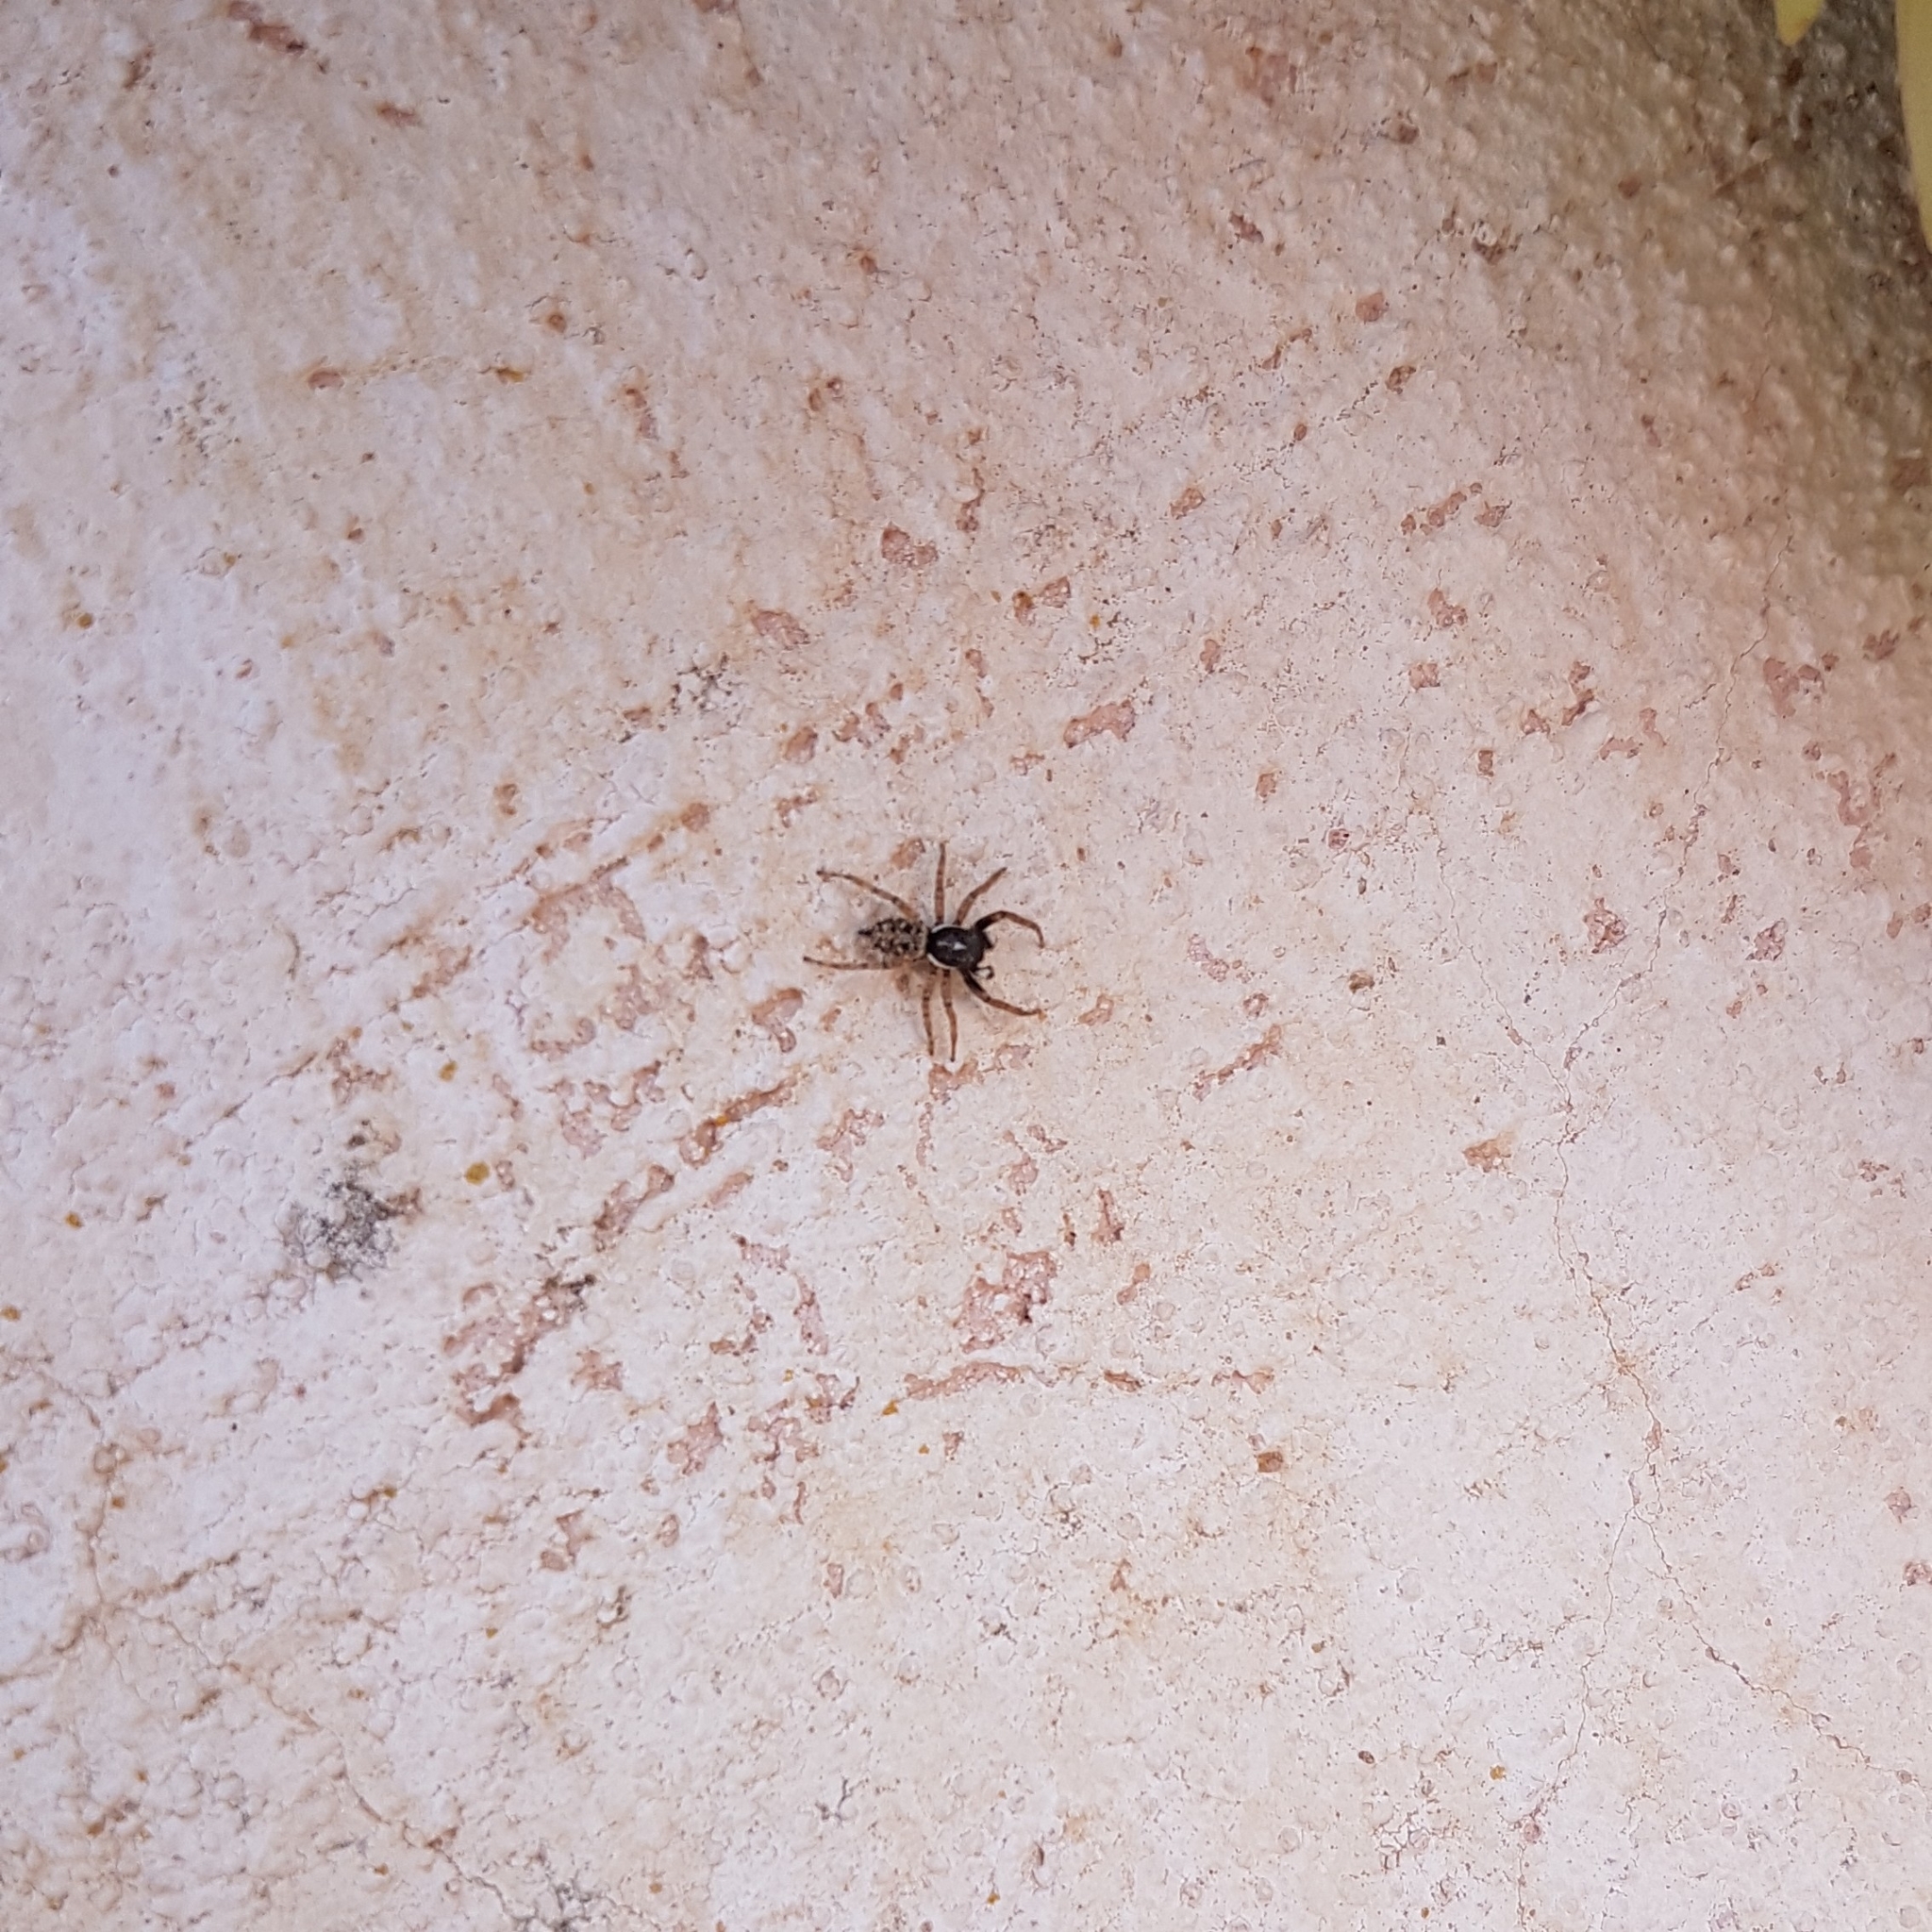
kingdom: Animalia
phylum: Arthropoda
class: Arachnida
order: Araneae
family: Salticidae
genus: Menemerus
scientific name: Menemerus semilimbatus
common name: Jumping spider
